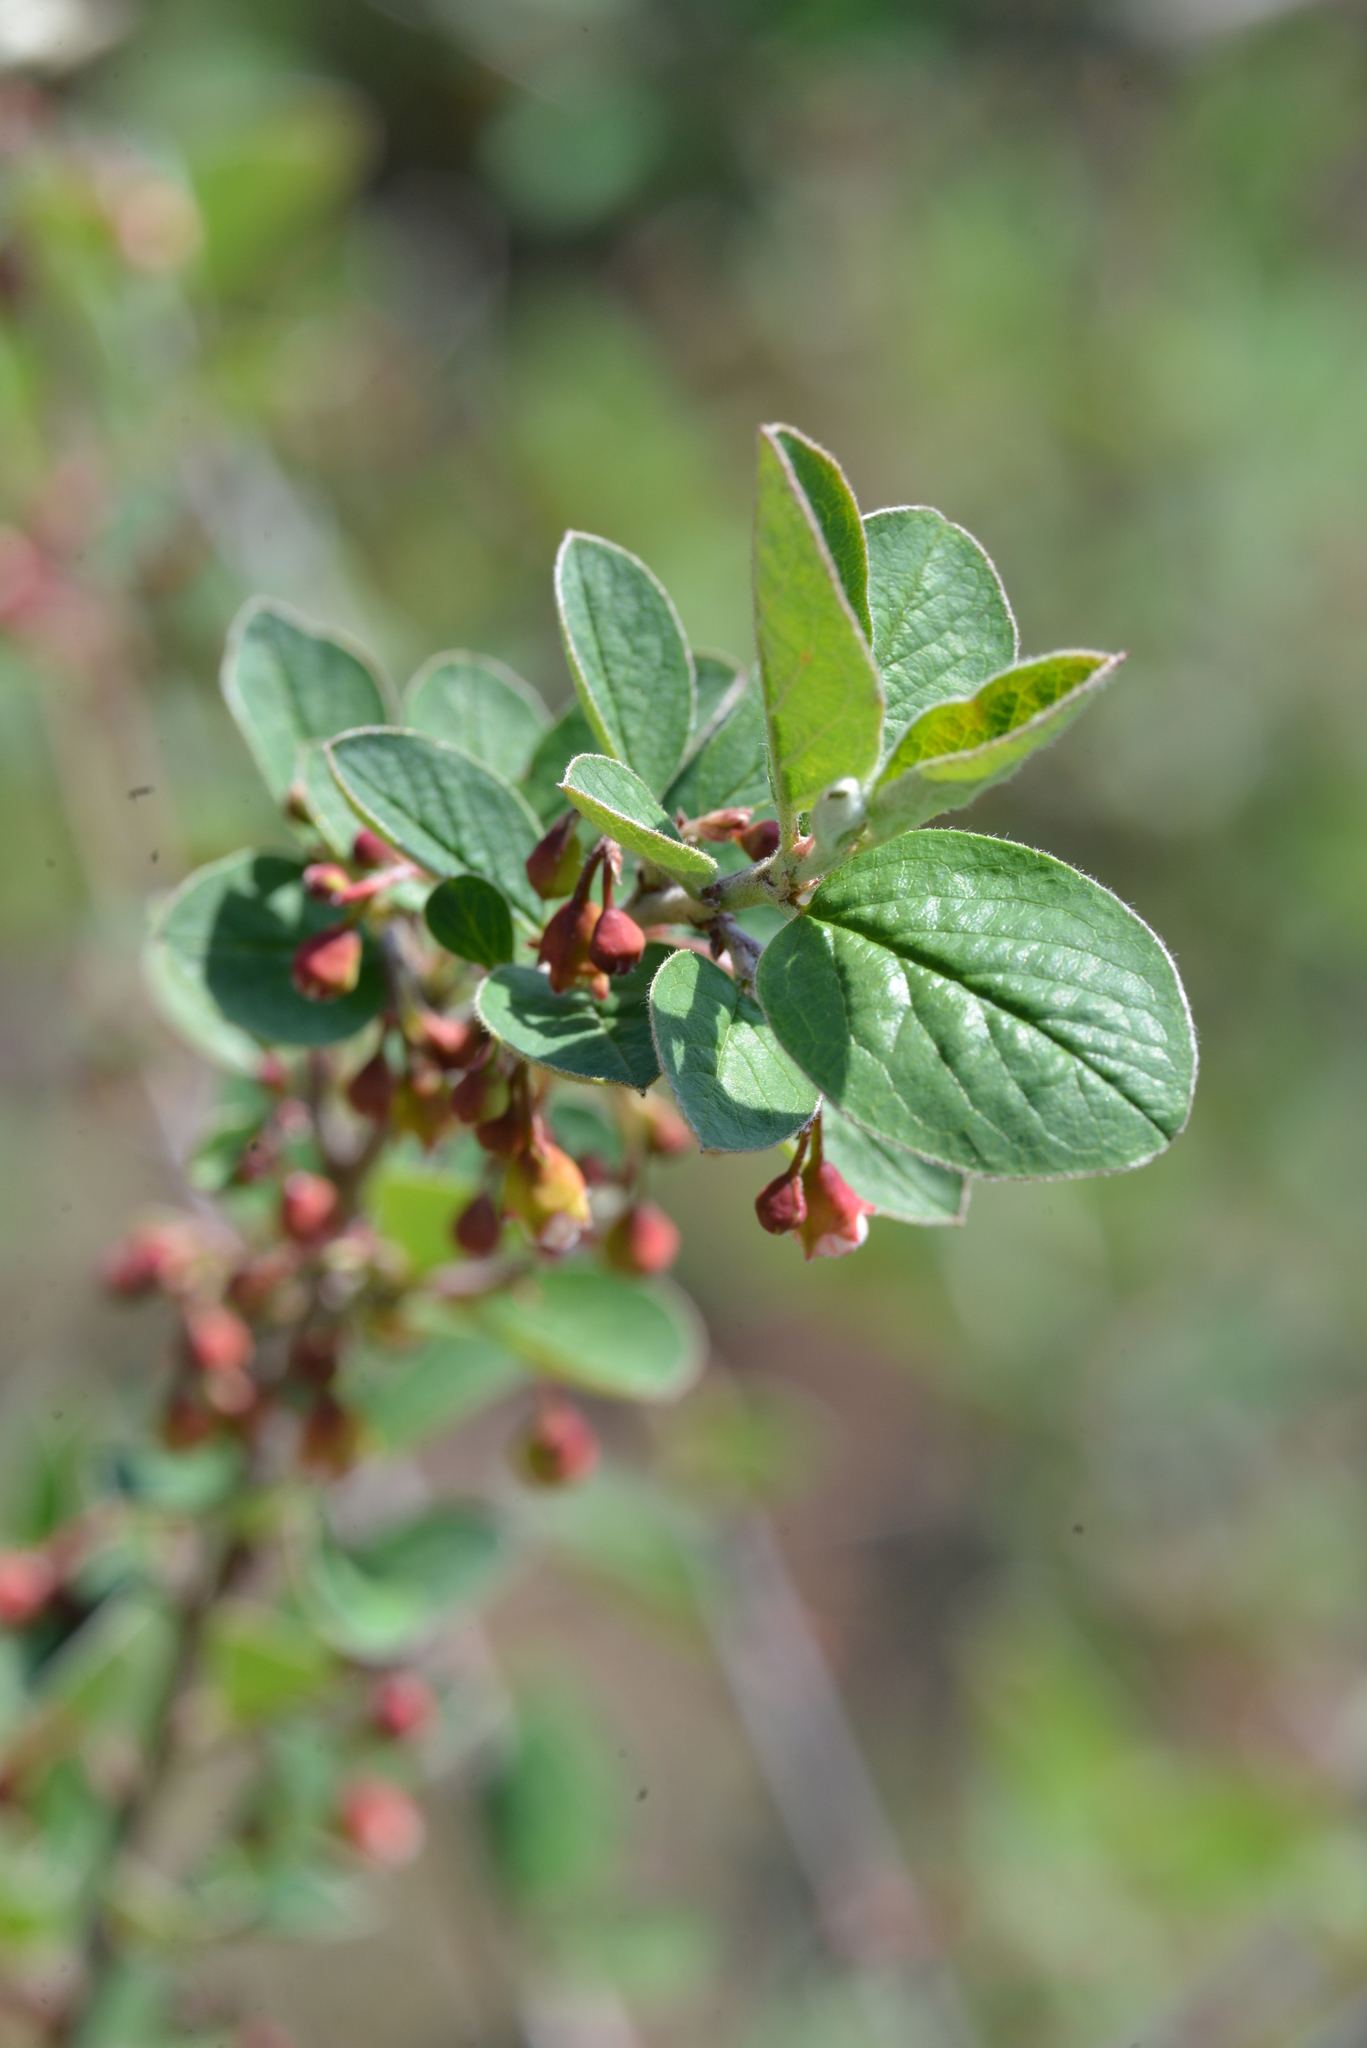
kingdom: Plantae
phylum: Tracheophyta
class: Magnoliopsida
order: Rosales
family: Rosaceae
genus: Cotoneaster
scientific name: Cotoneaster integerrimus
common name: Wild cotoneaster
